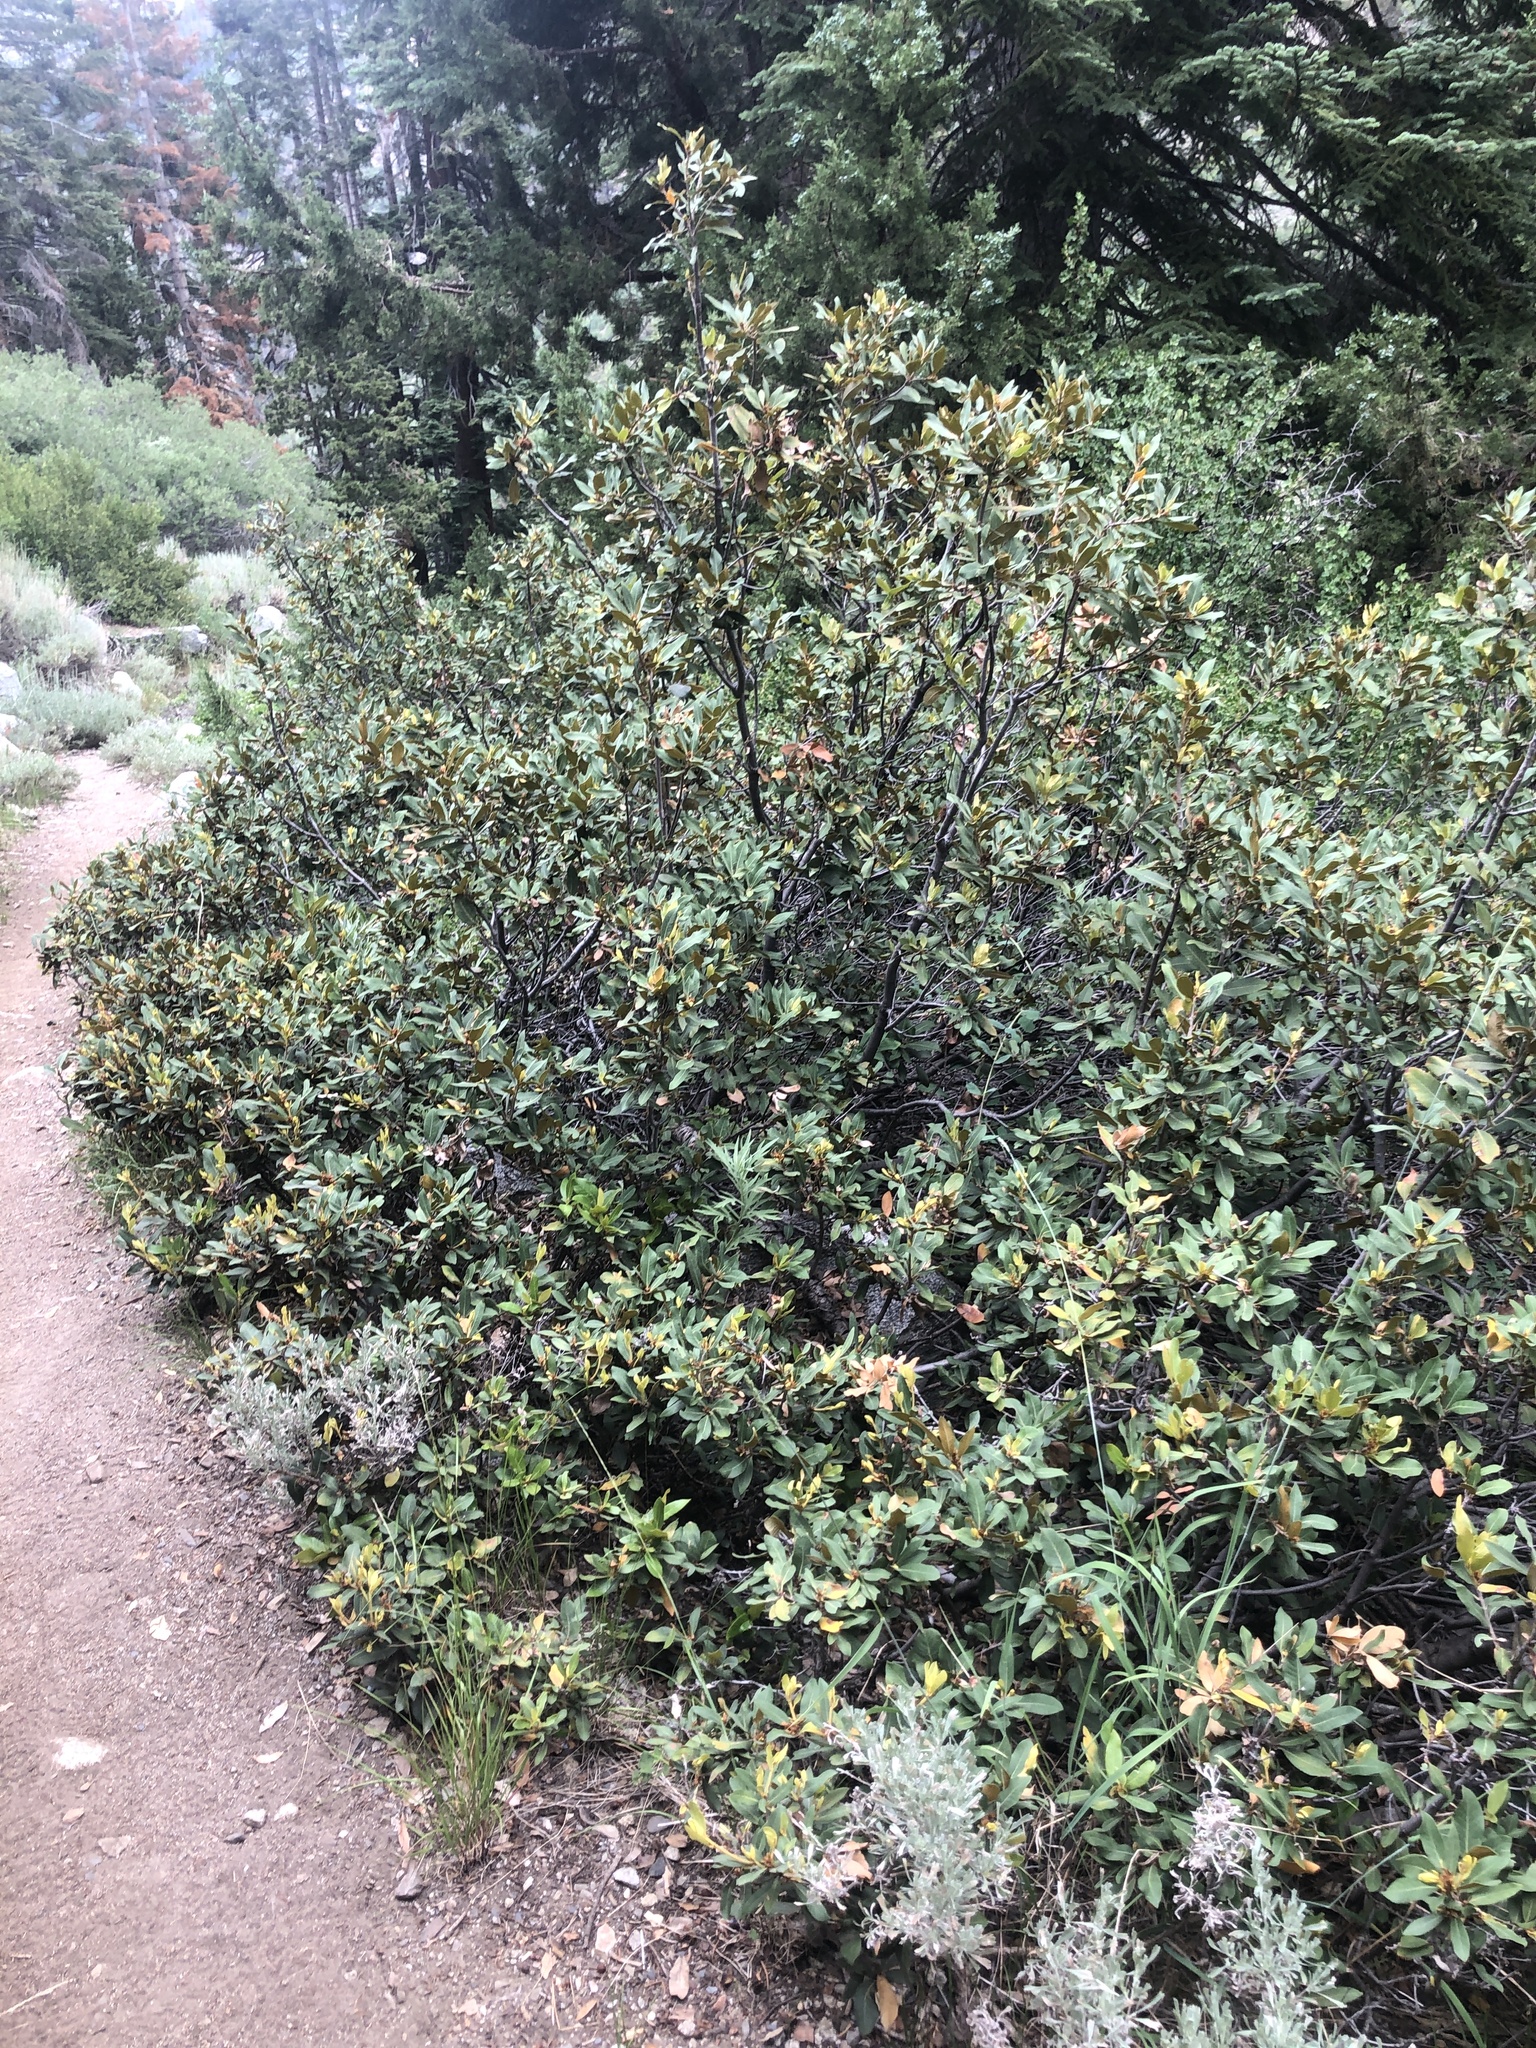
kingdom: Plantae
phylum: Tracheophyta
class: Magnoliopsida
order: Fagales
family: Fagaceae
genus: Chrysolepis
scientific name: Chrysolepis sempervirens
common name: Bush chinquapin
